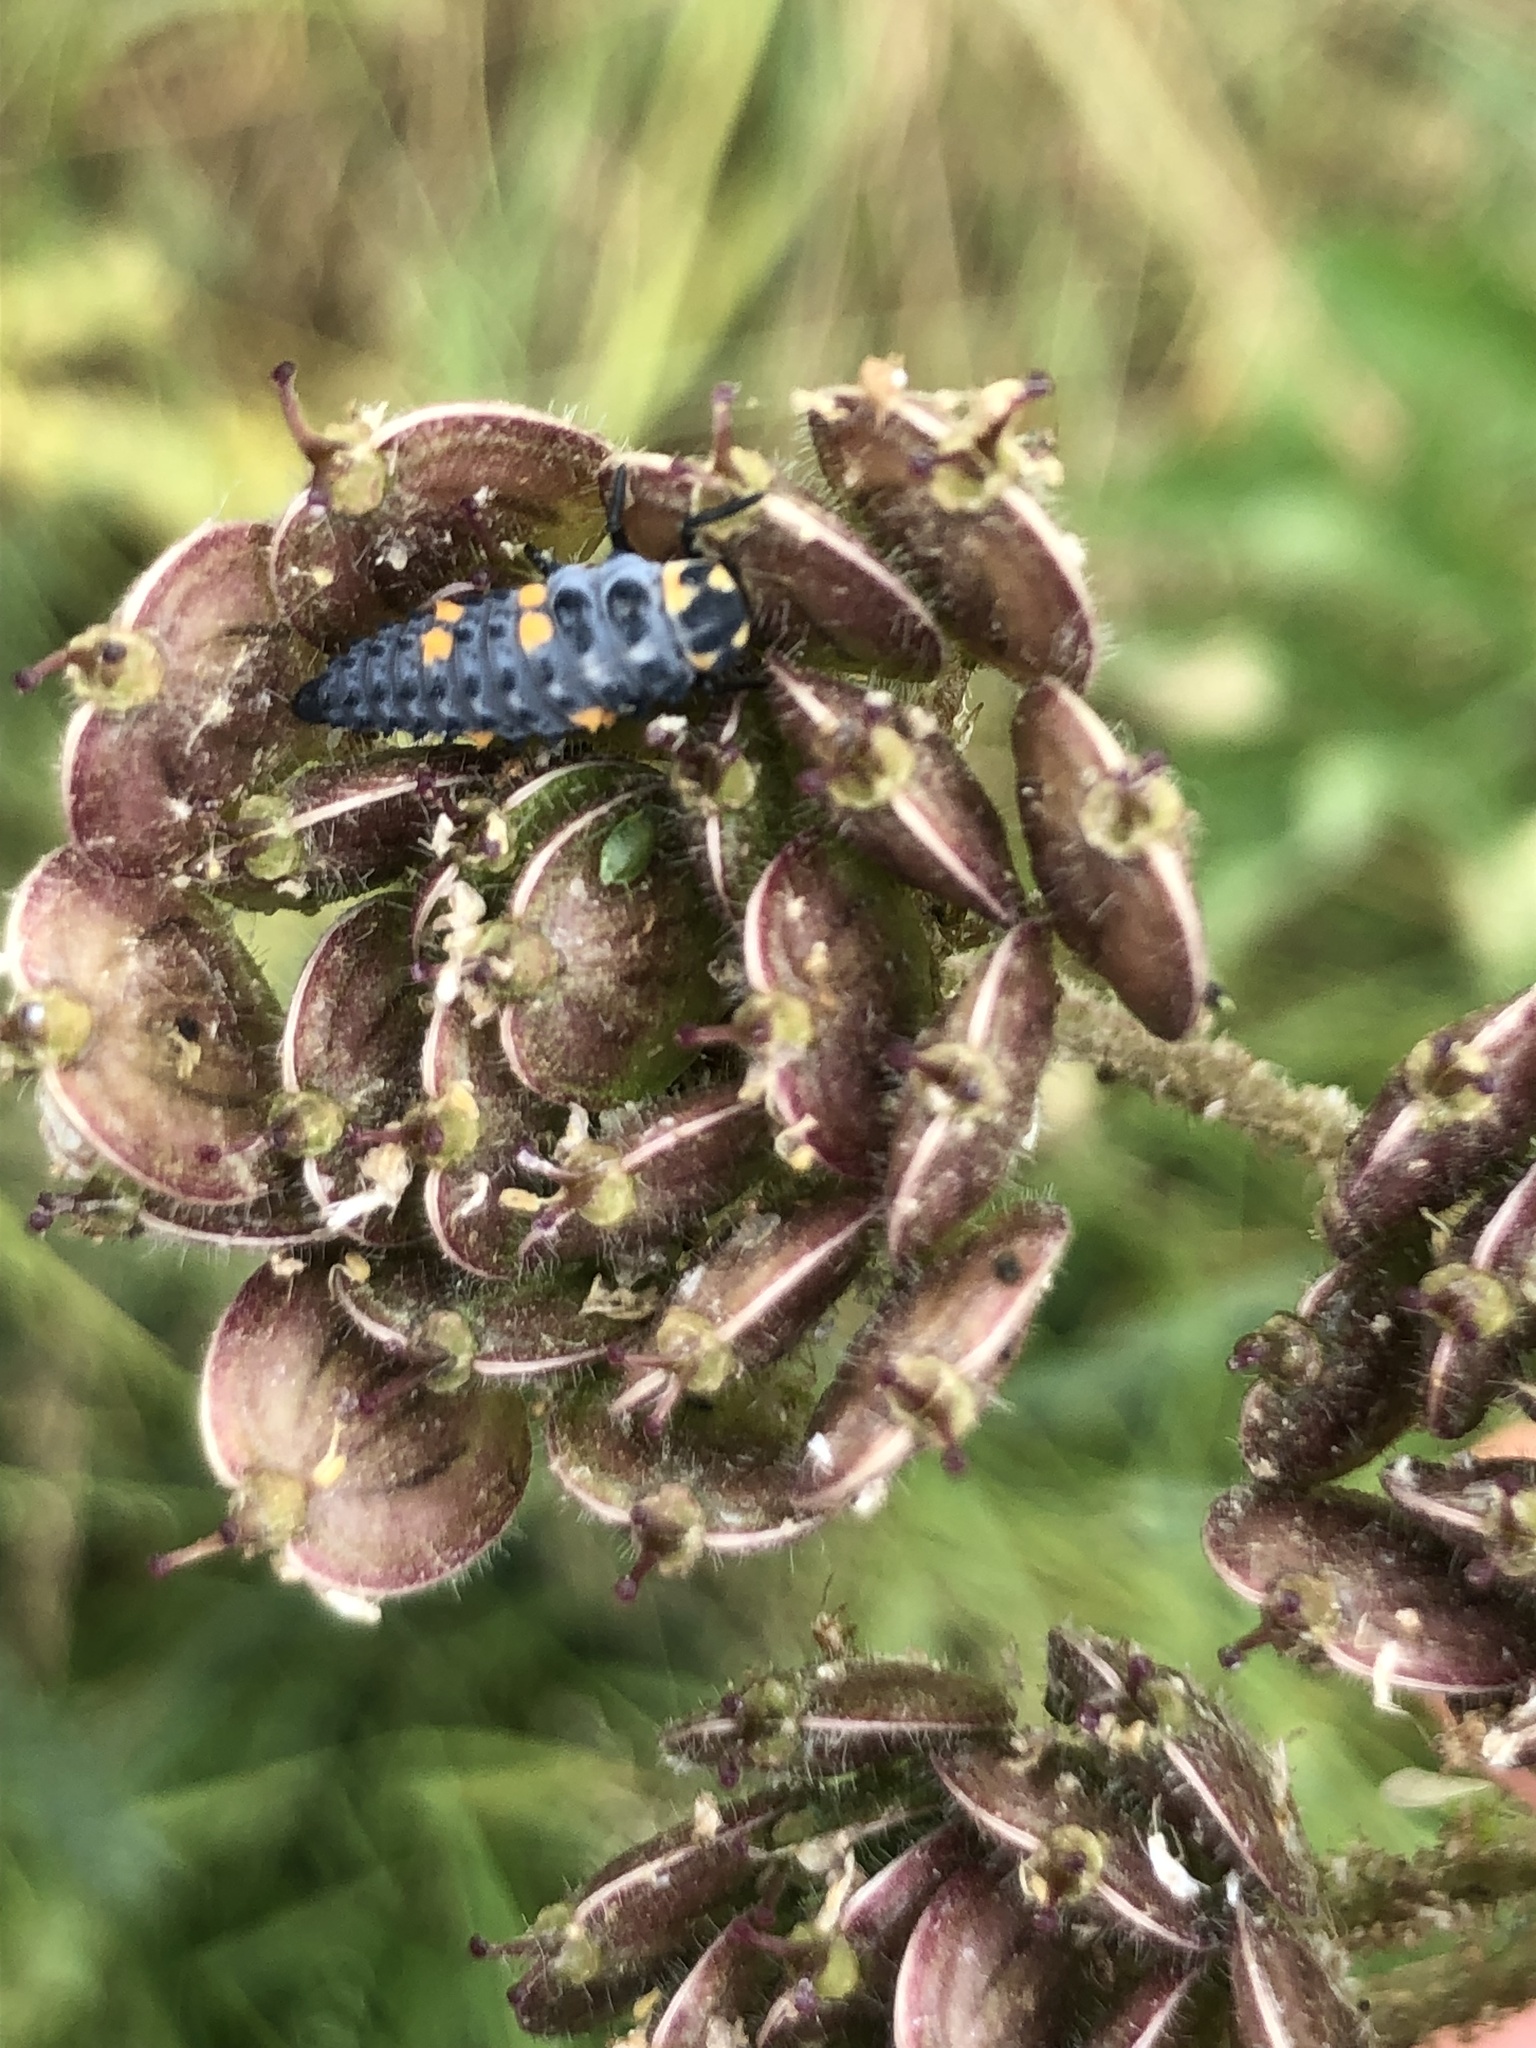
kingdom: Animalia
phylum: Arthropoda
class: Insecta
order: Coleoptera
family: Coccinellidae
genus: Coccinella
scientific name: Coccinella septempunctata
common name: Sevenspotted lady beetle
